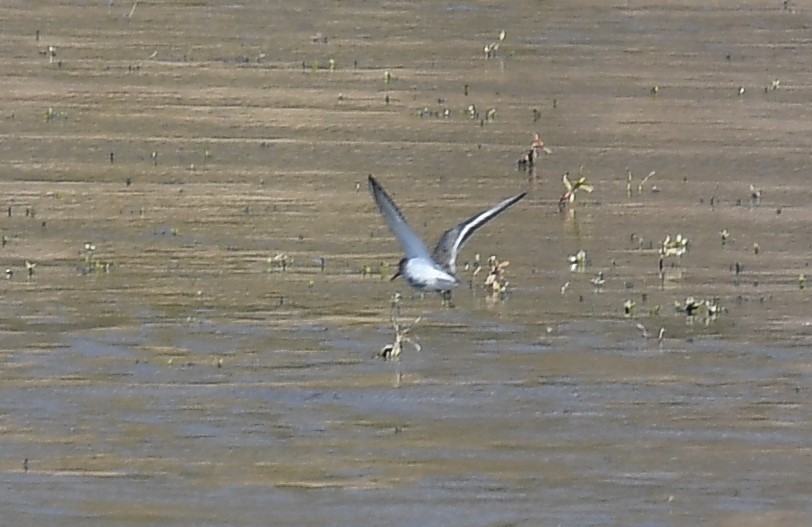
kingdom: Animalia
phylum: Chordata
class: Aves
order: Charadriiformes
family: Scolopacidae
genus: Calidris
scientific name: Calidris alpina
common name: Dunlin
